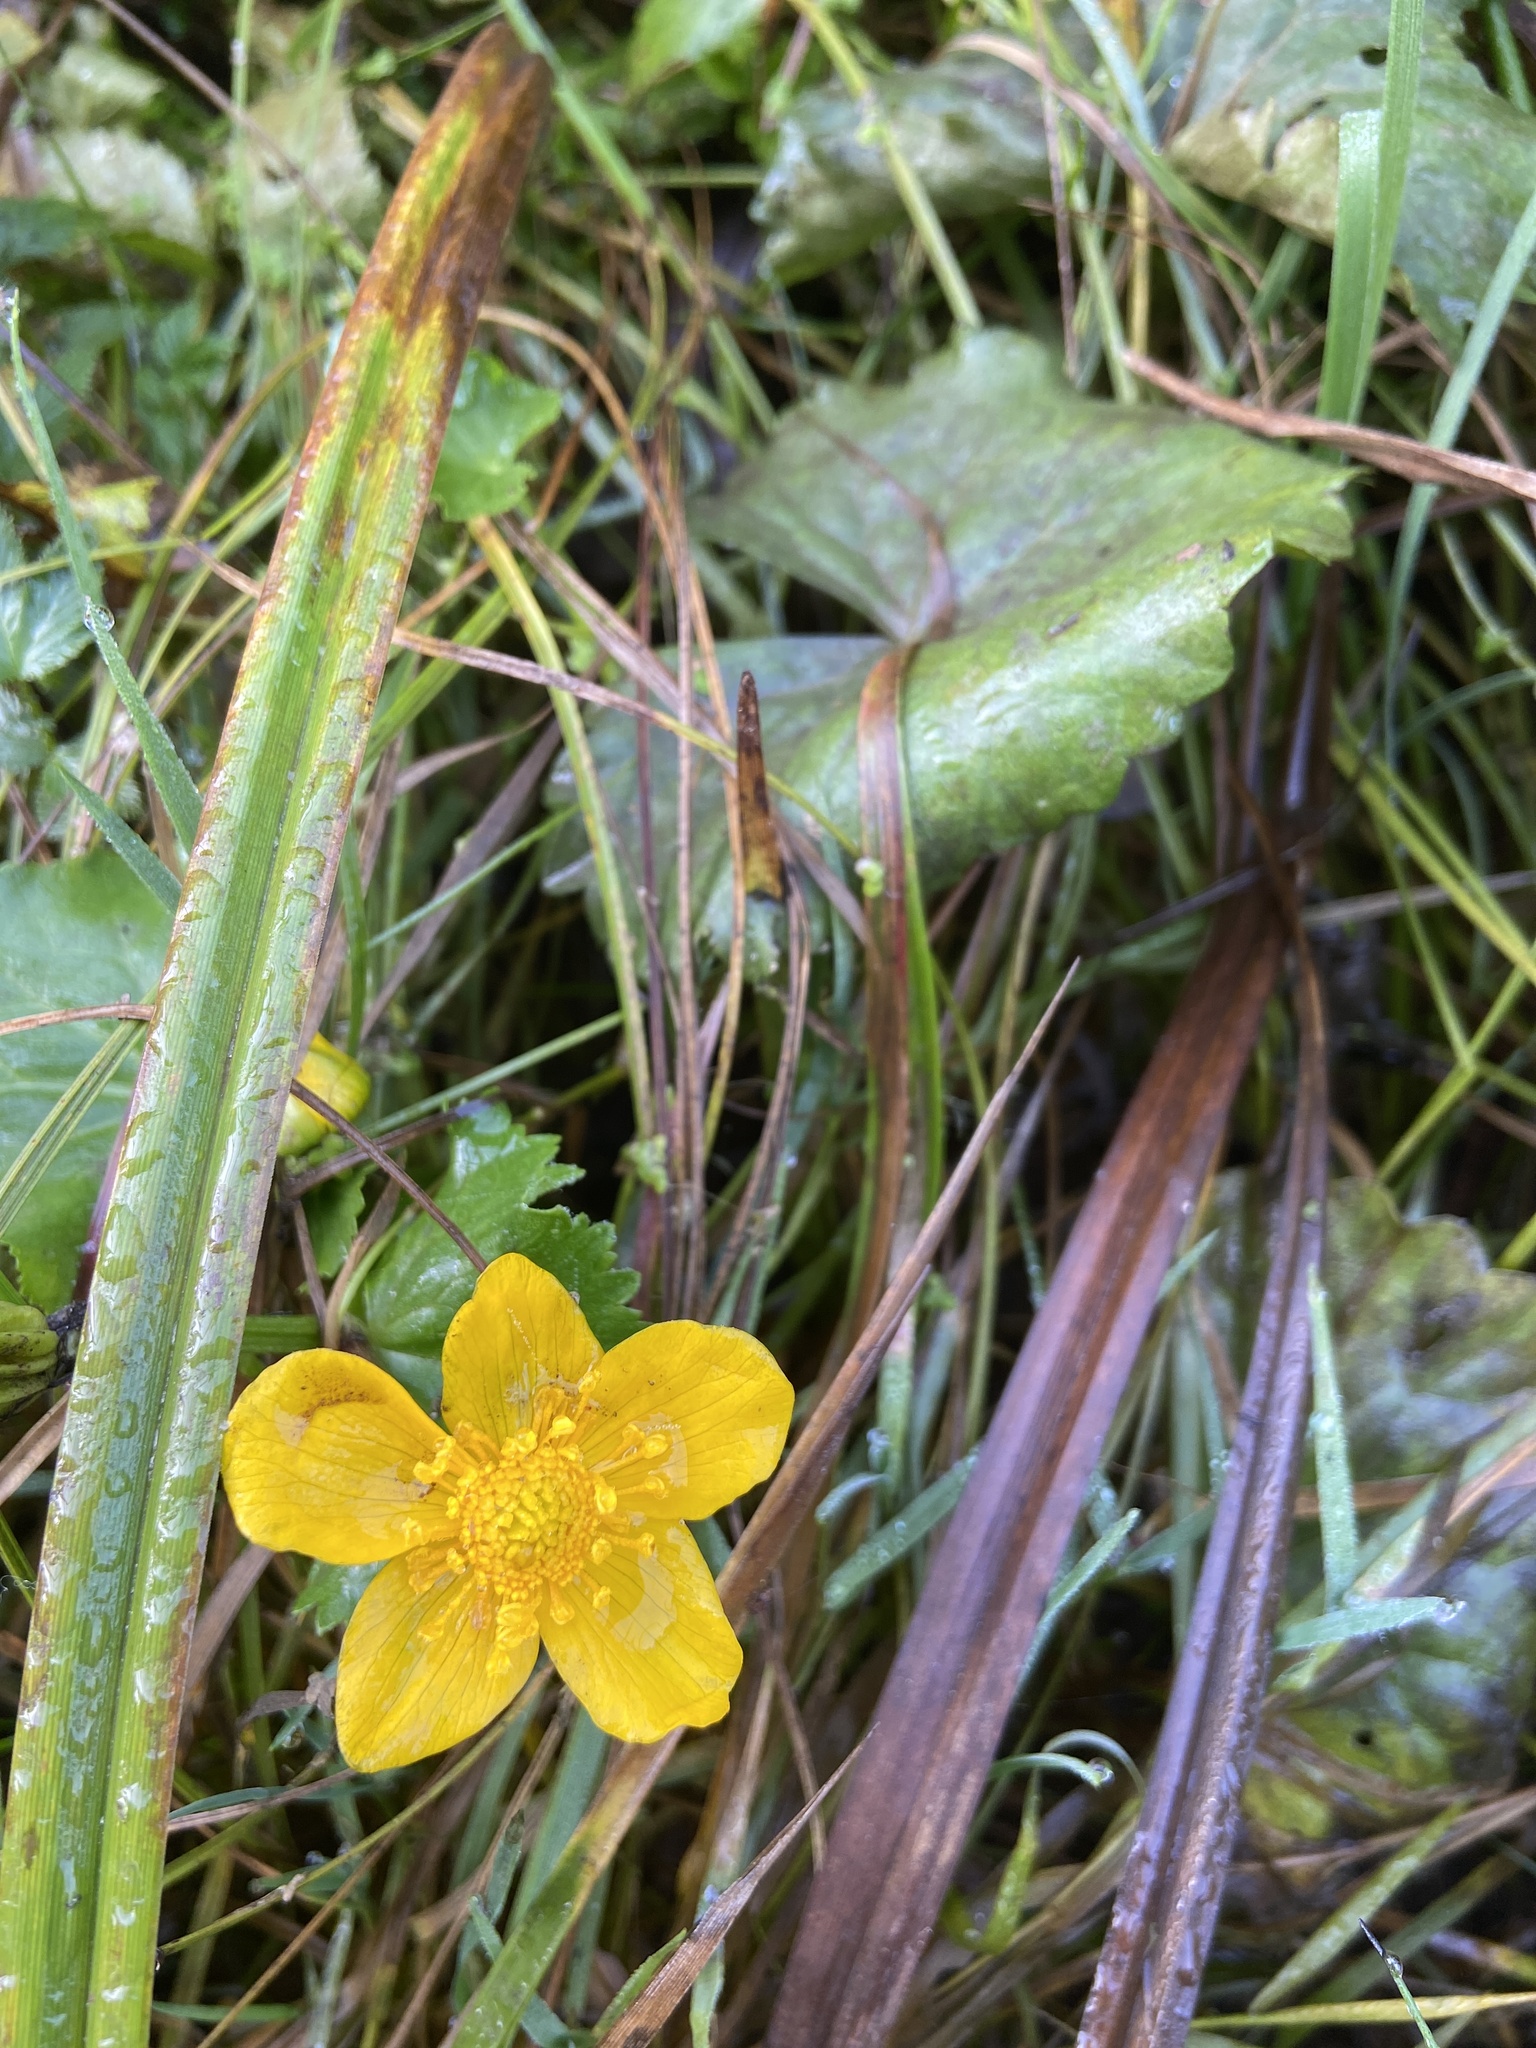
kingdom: Plantae
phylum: Tracheophyta
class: Magnoliopsida
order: Ranunculales
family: Ranunculaceae
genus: Caltha
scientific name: Caltha palustris
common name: Marsh marigold
